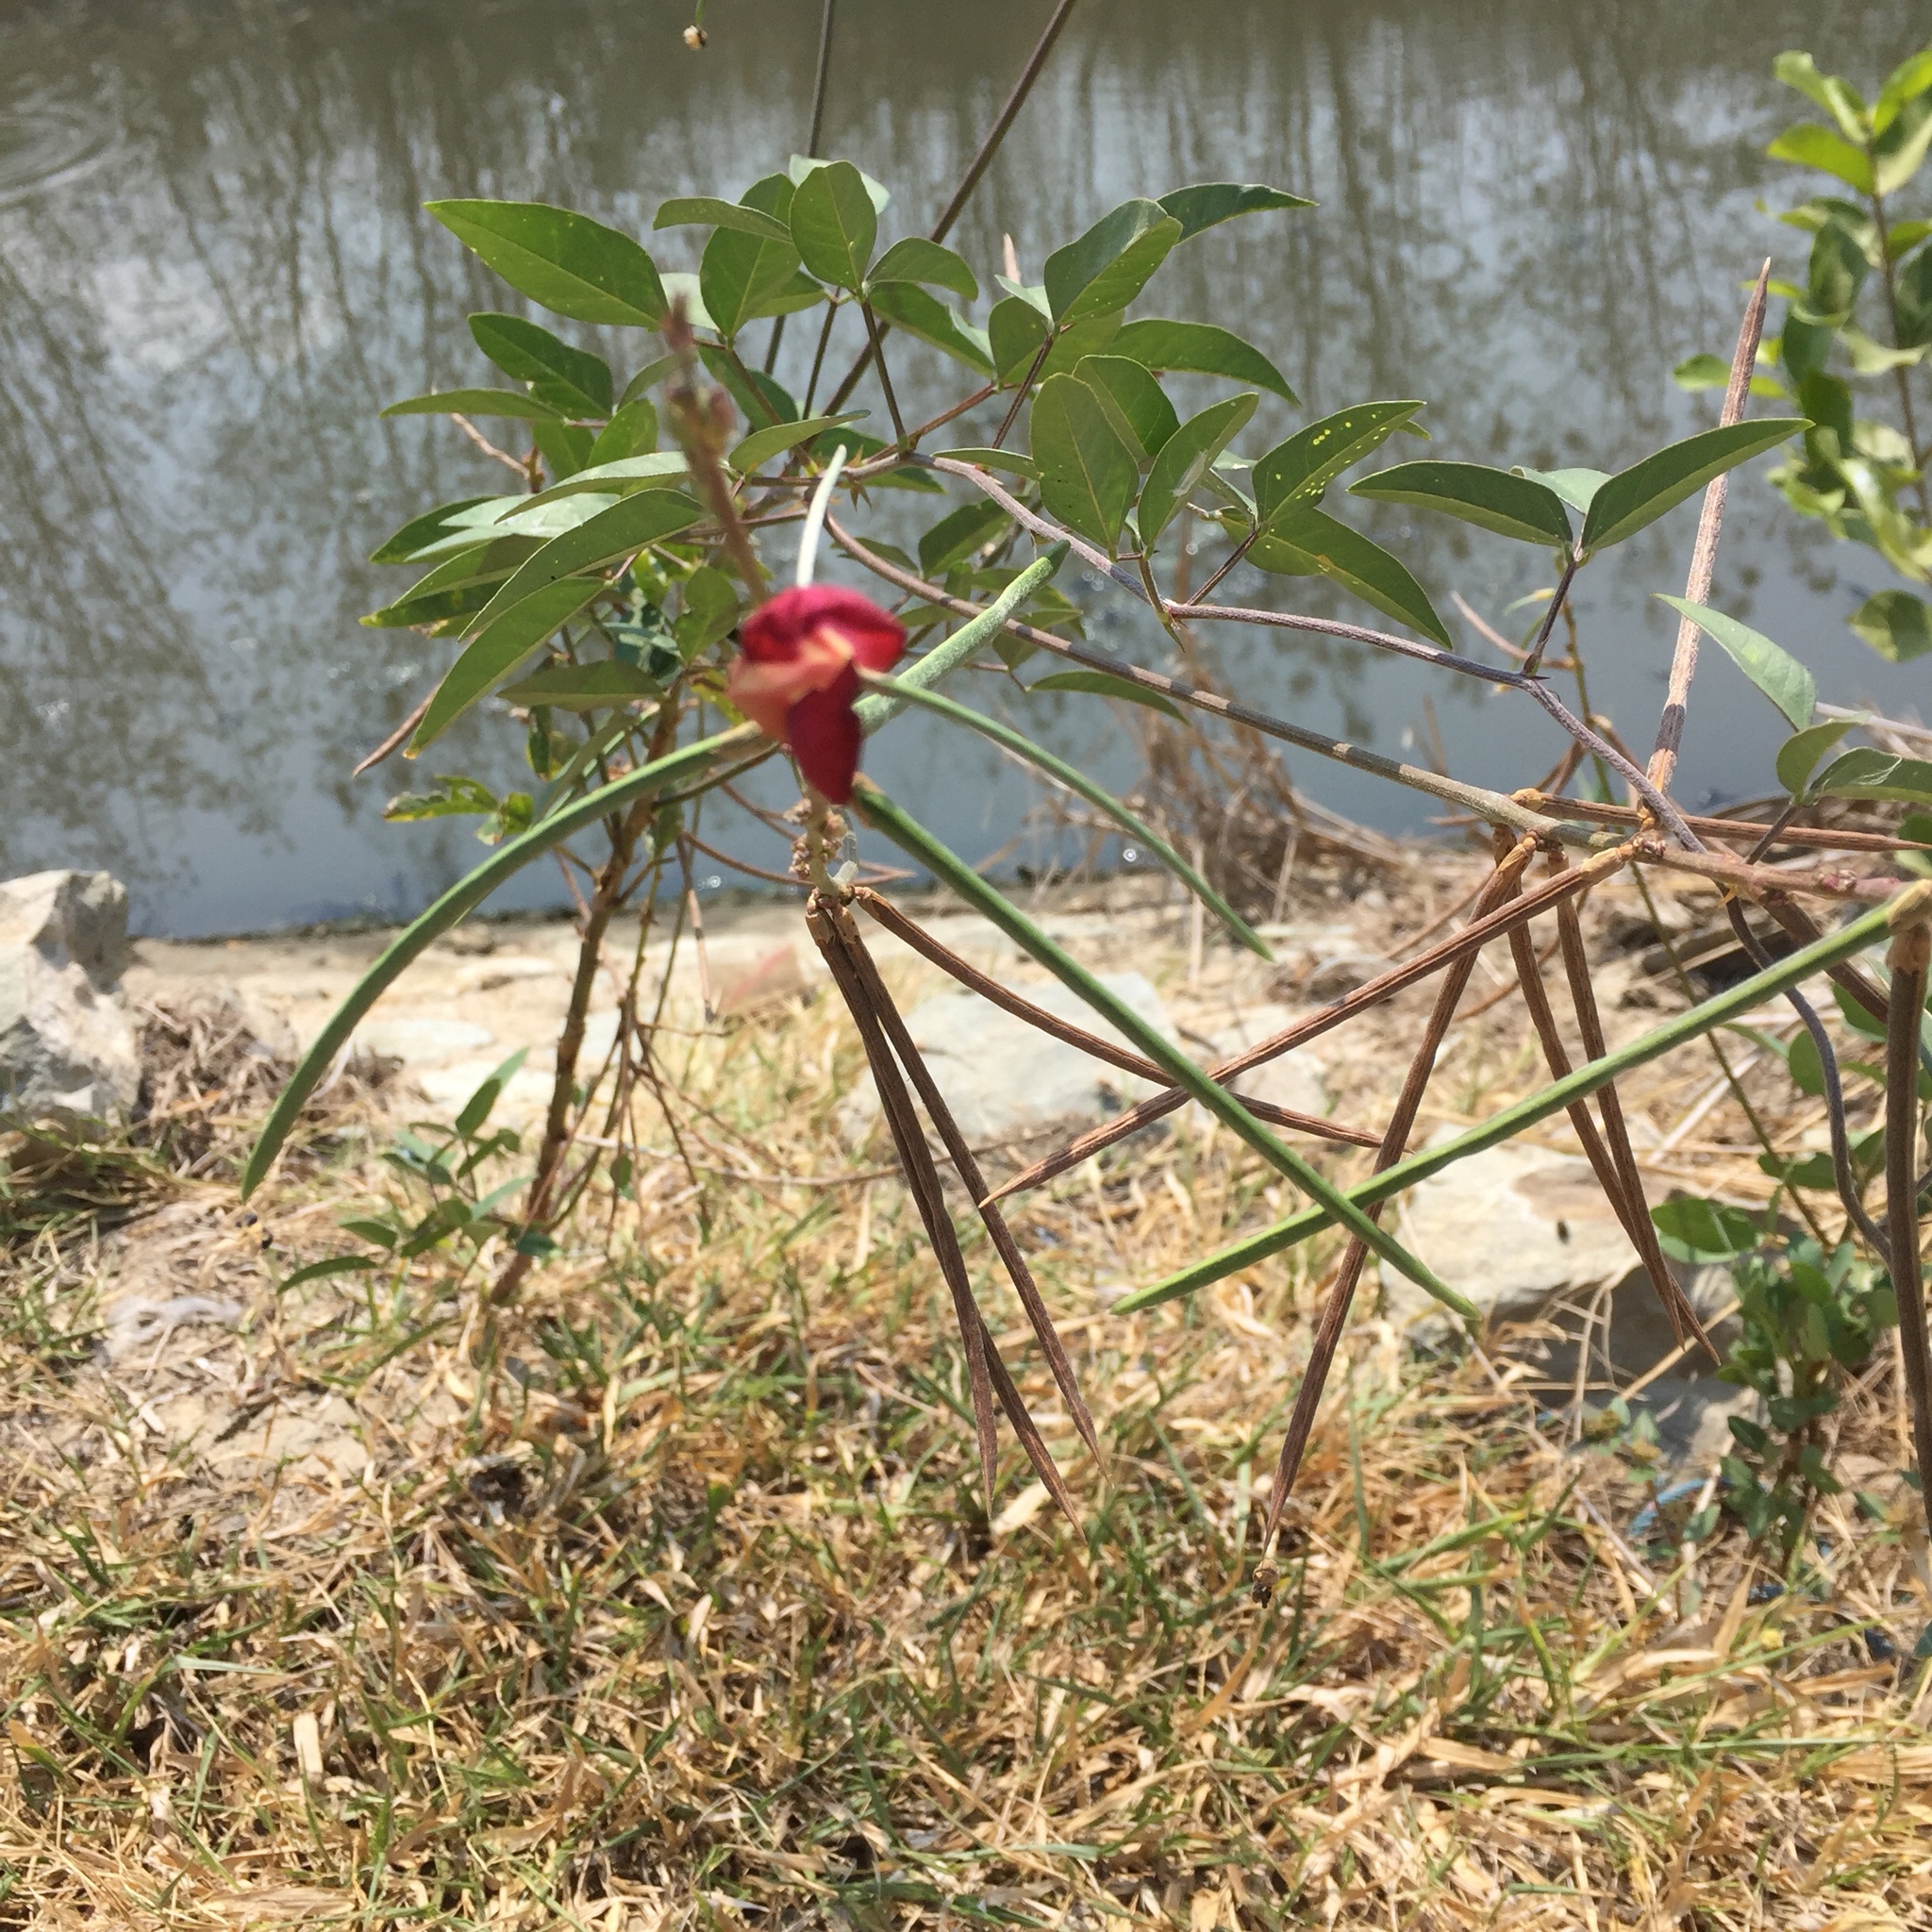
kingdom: Plantae
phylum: Tracheophyta
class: Magnoliopsida
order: Fabales
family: Fabaceae
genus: Macroptilium
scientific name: Macroptilium lathyroides
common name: Wild bushbean
